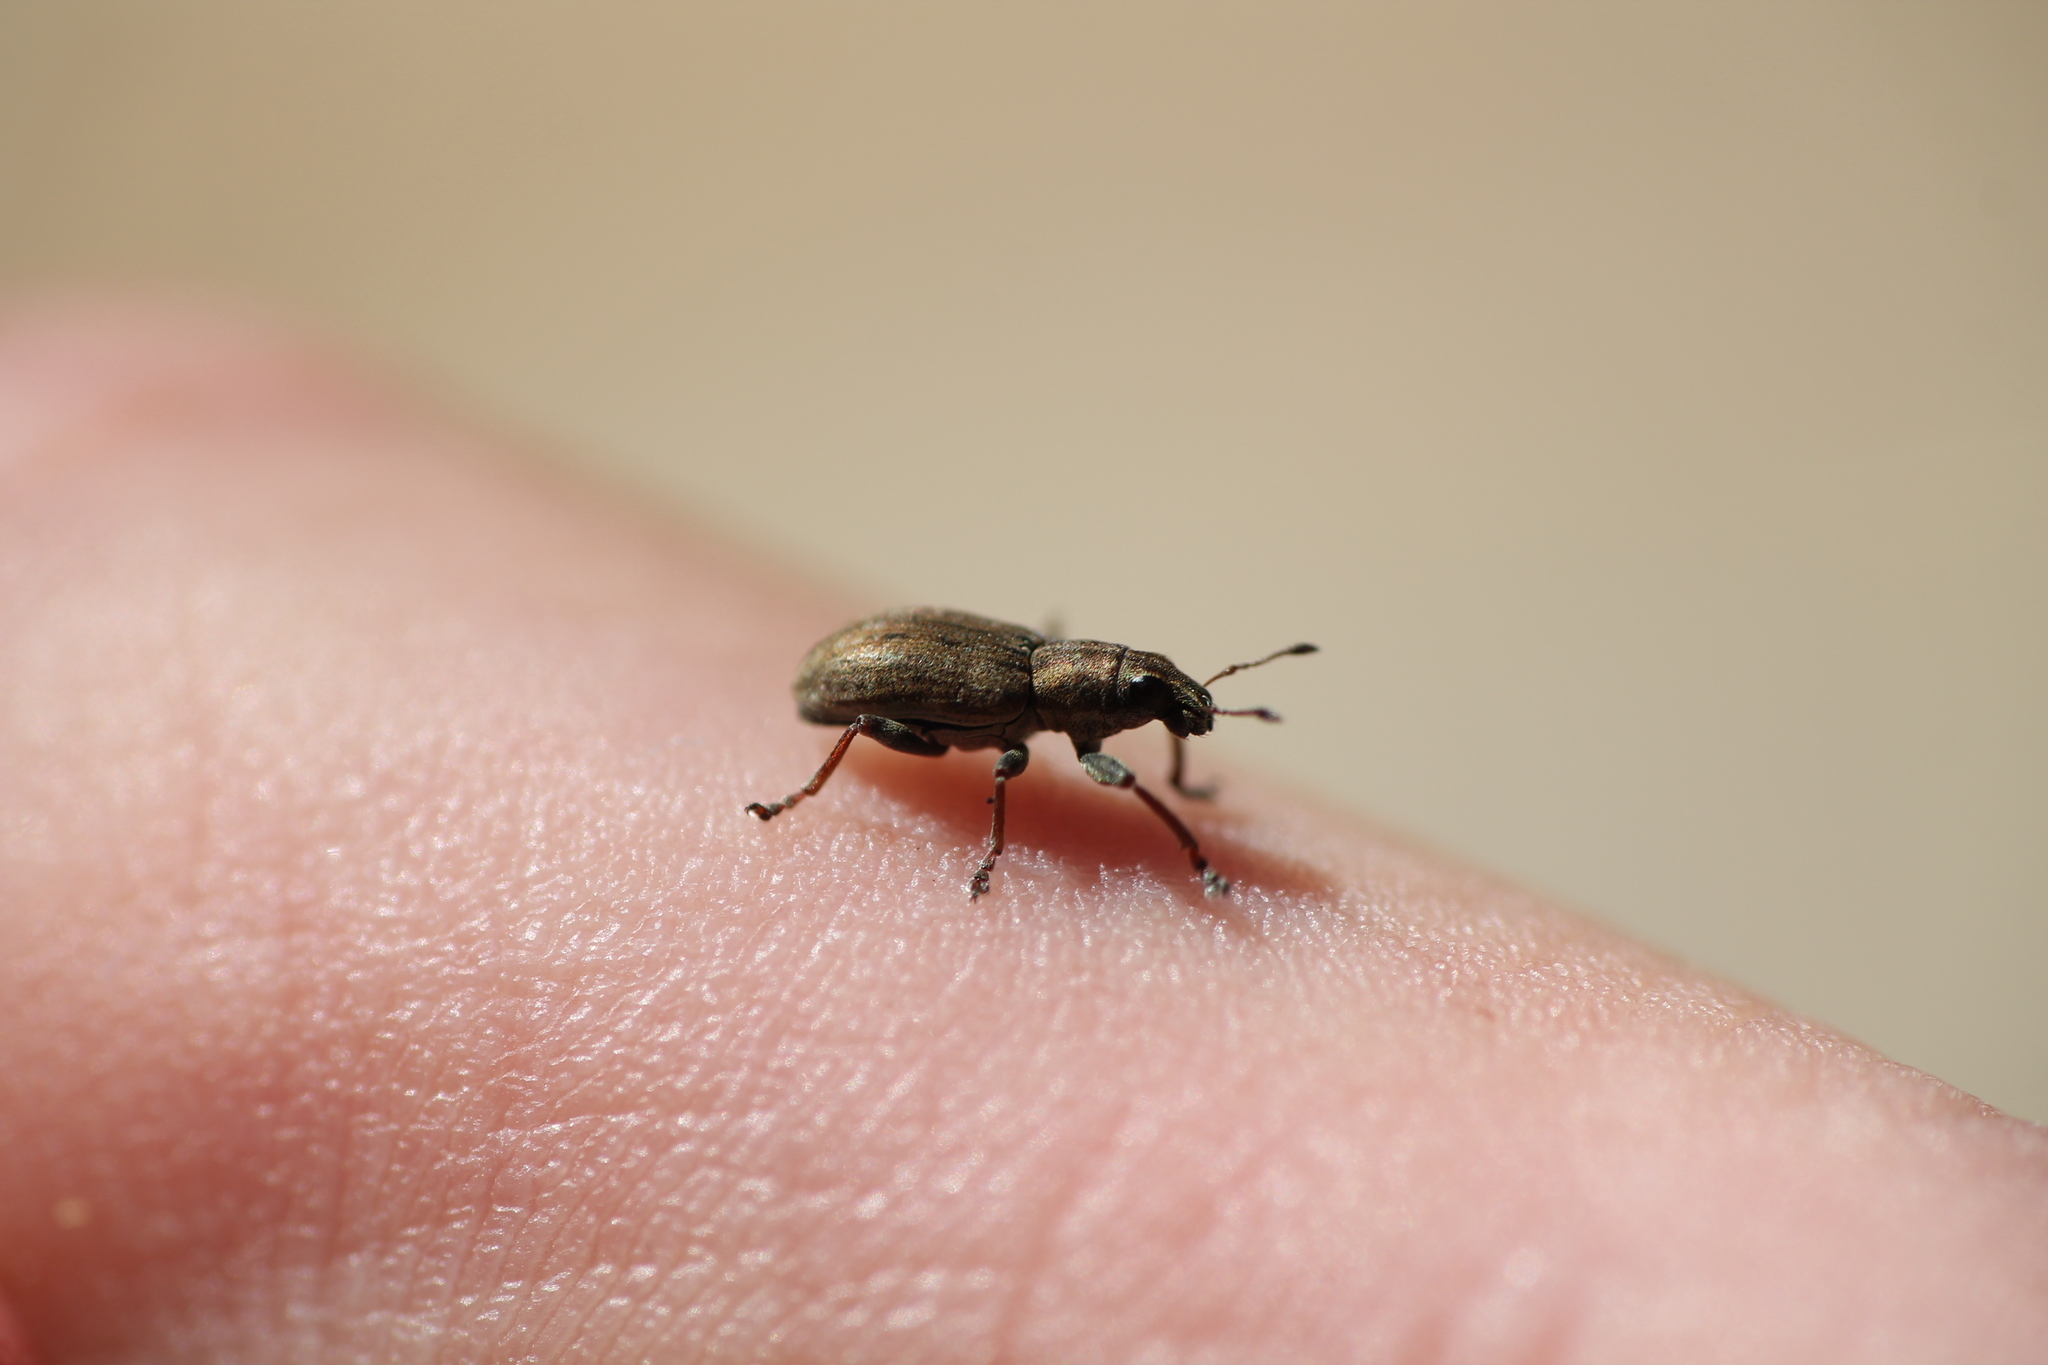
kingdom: Animalia
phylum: Arthropoda
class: Insecta
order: Coleoptera
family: Curculionidae
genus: Sitona
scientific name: Sitona obsoletus
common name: Weevil
